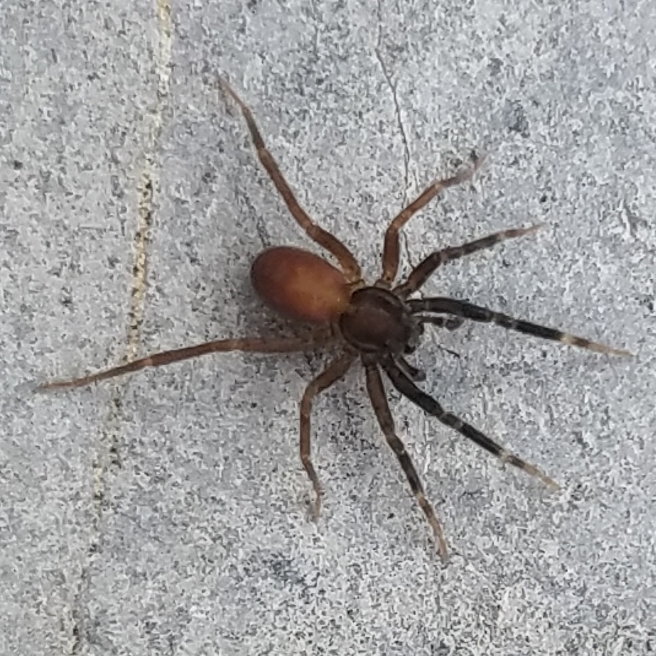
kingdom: Animalia
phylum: Arthropoda
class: Arachnida
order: Araneae
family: Lycosidae
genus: Trabeops
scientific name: Trabeops aurantiacus
